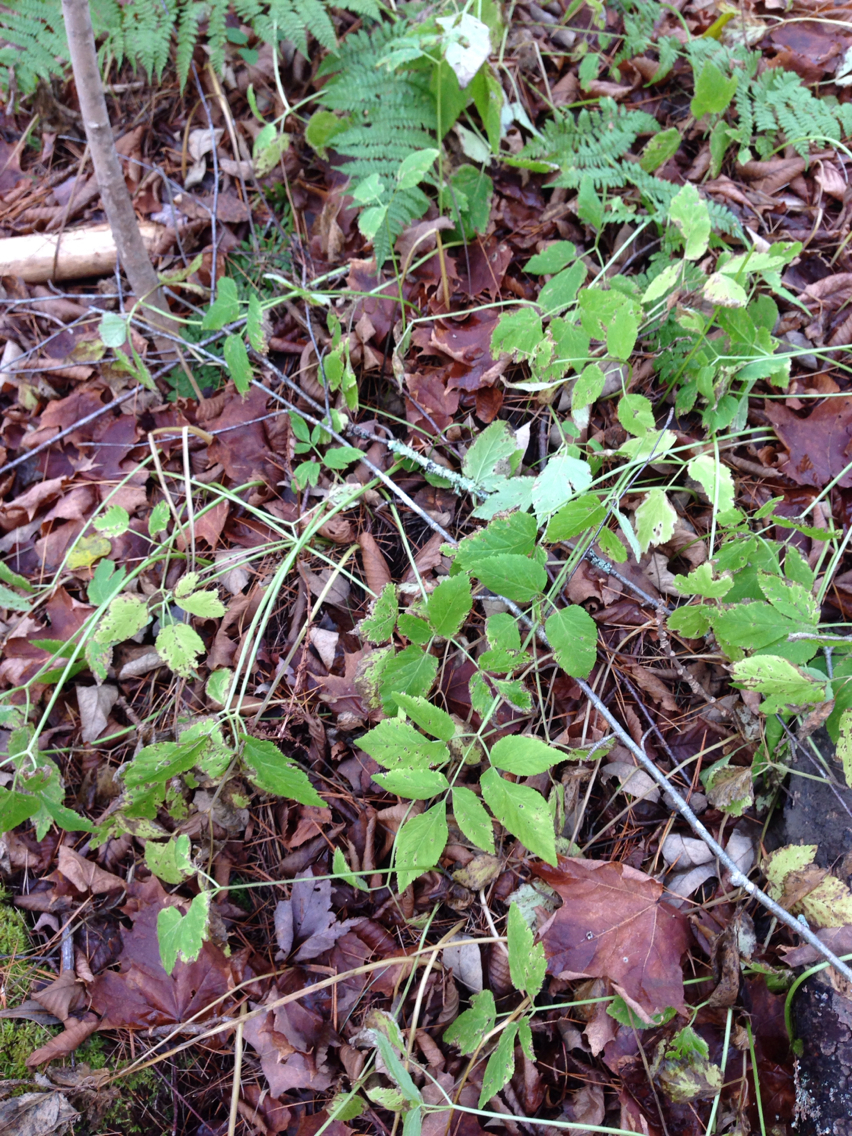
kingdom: Plantae
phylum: Tracheophyta
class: Magnoliopsida
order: Apiales
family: Apiaceae
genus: Aegopodium
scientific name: Aegopodium podagraria
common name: Ground-elder
